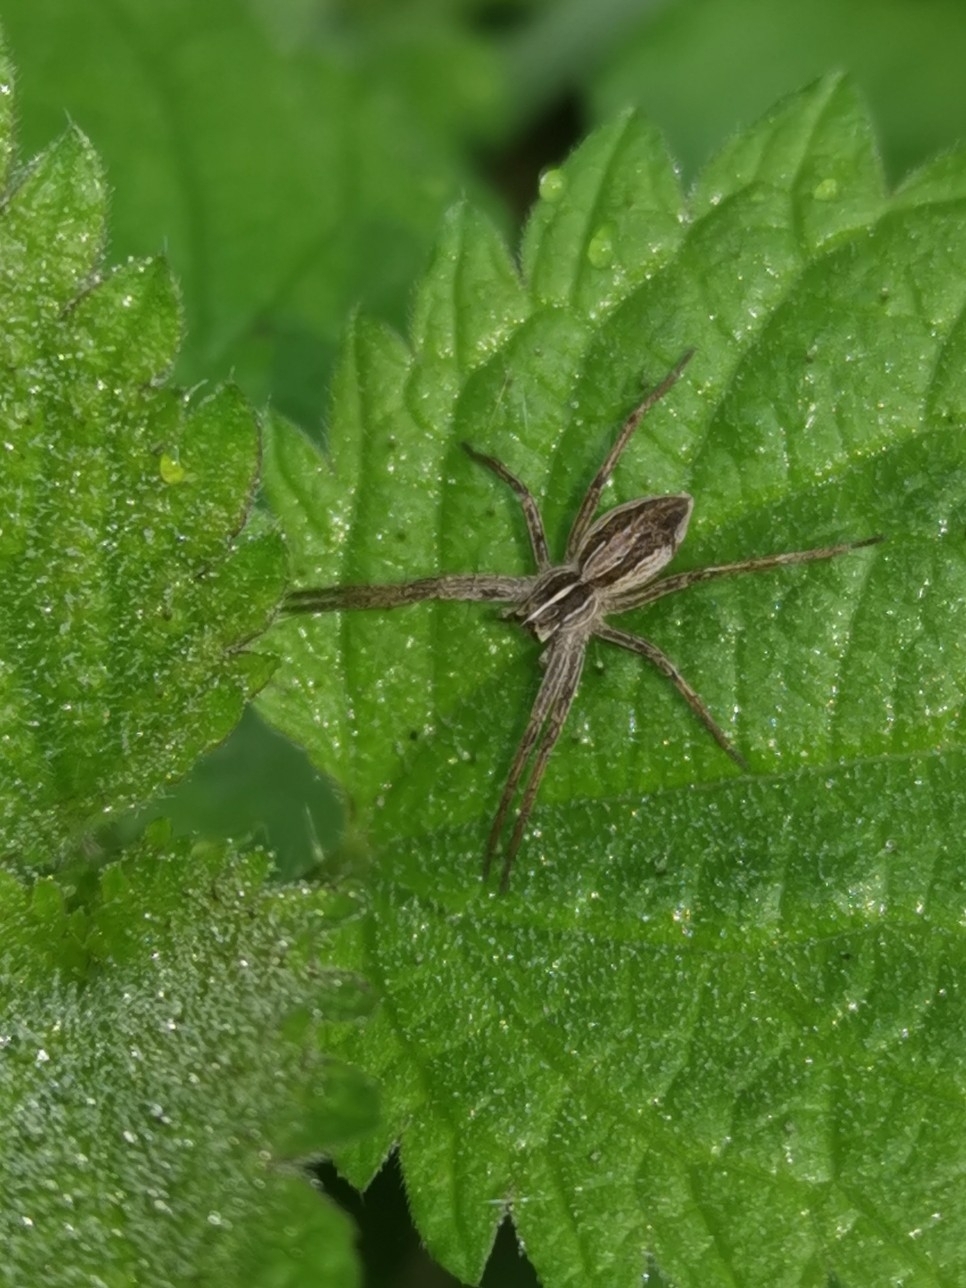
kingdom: Animalia
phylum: Arthropoda
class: Arachnida
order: Araneae
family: Pisauridae
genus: Pisaura
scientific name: Pisaura mirabilis
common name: Tent spider
